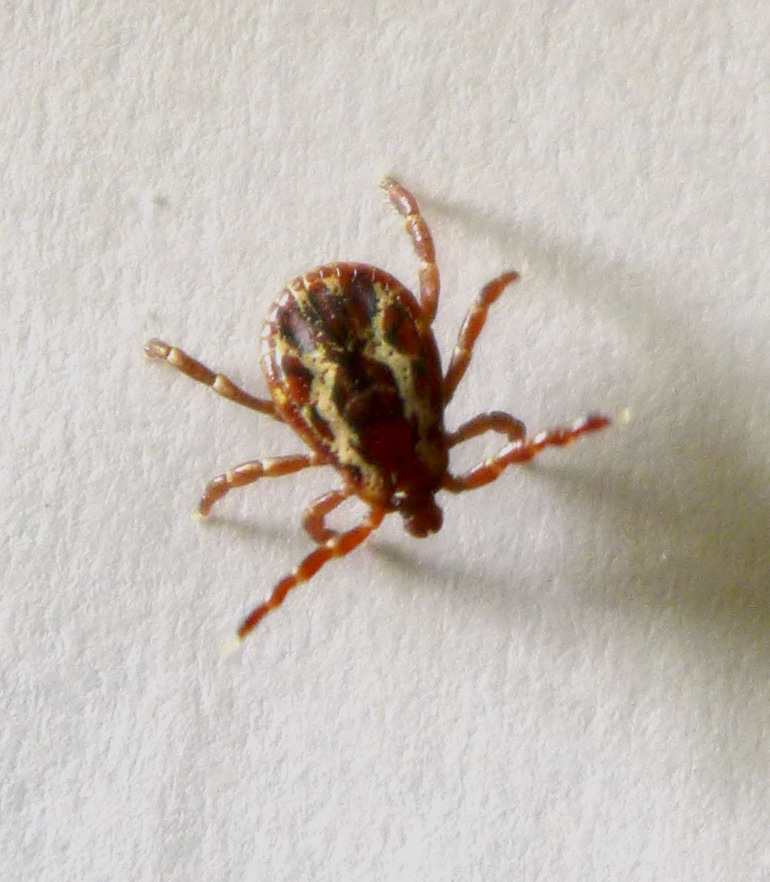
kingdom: Animalia
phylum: Arthropoda
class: Arachnida
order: Ixodida
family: Ixodidae
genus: Dermacentor
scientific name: Dermacentor variabilis
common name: American dog tick
